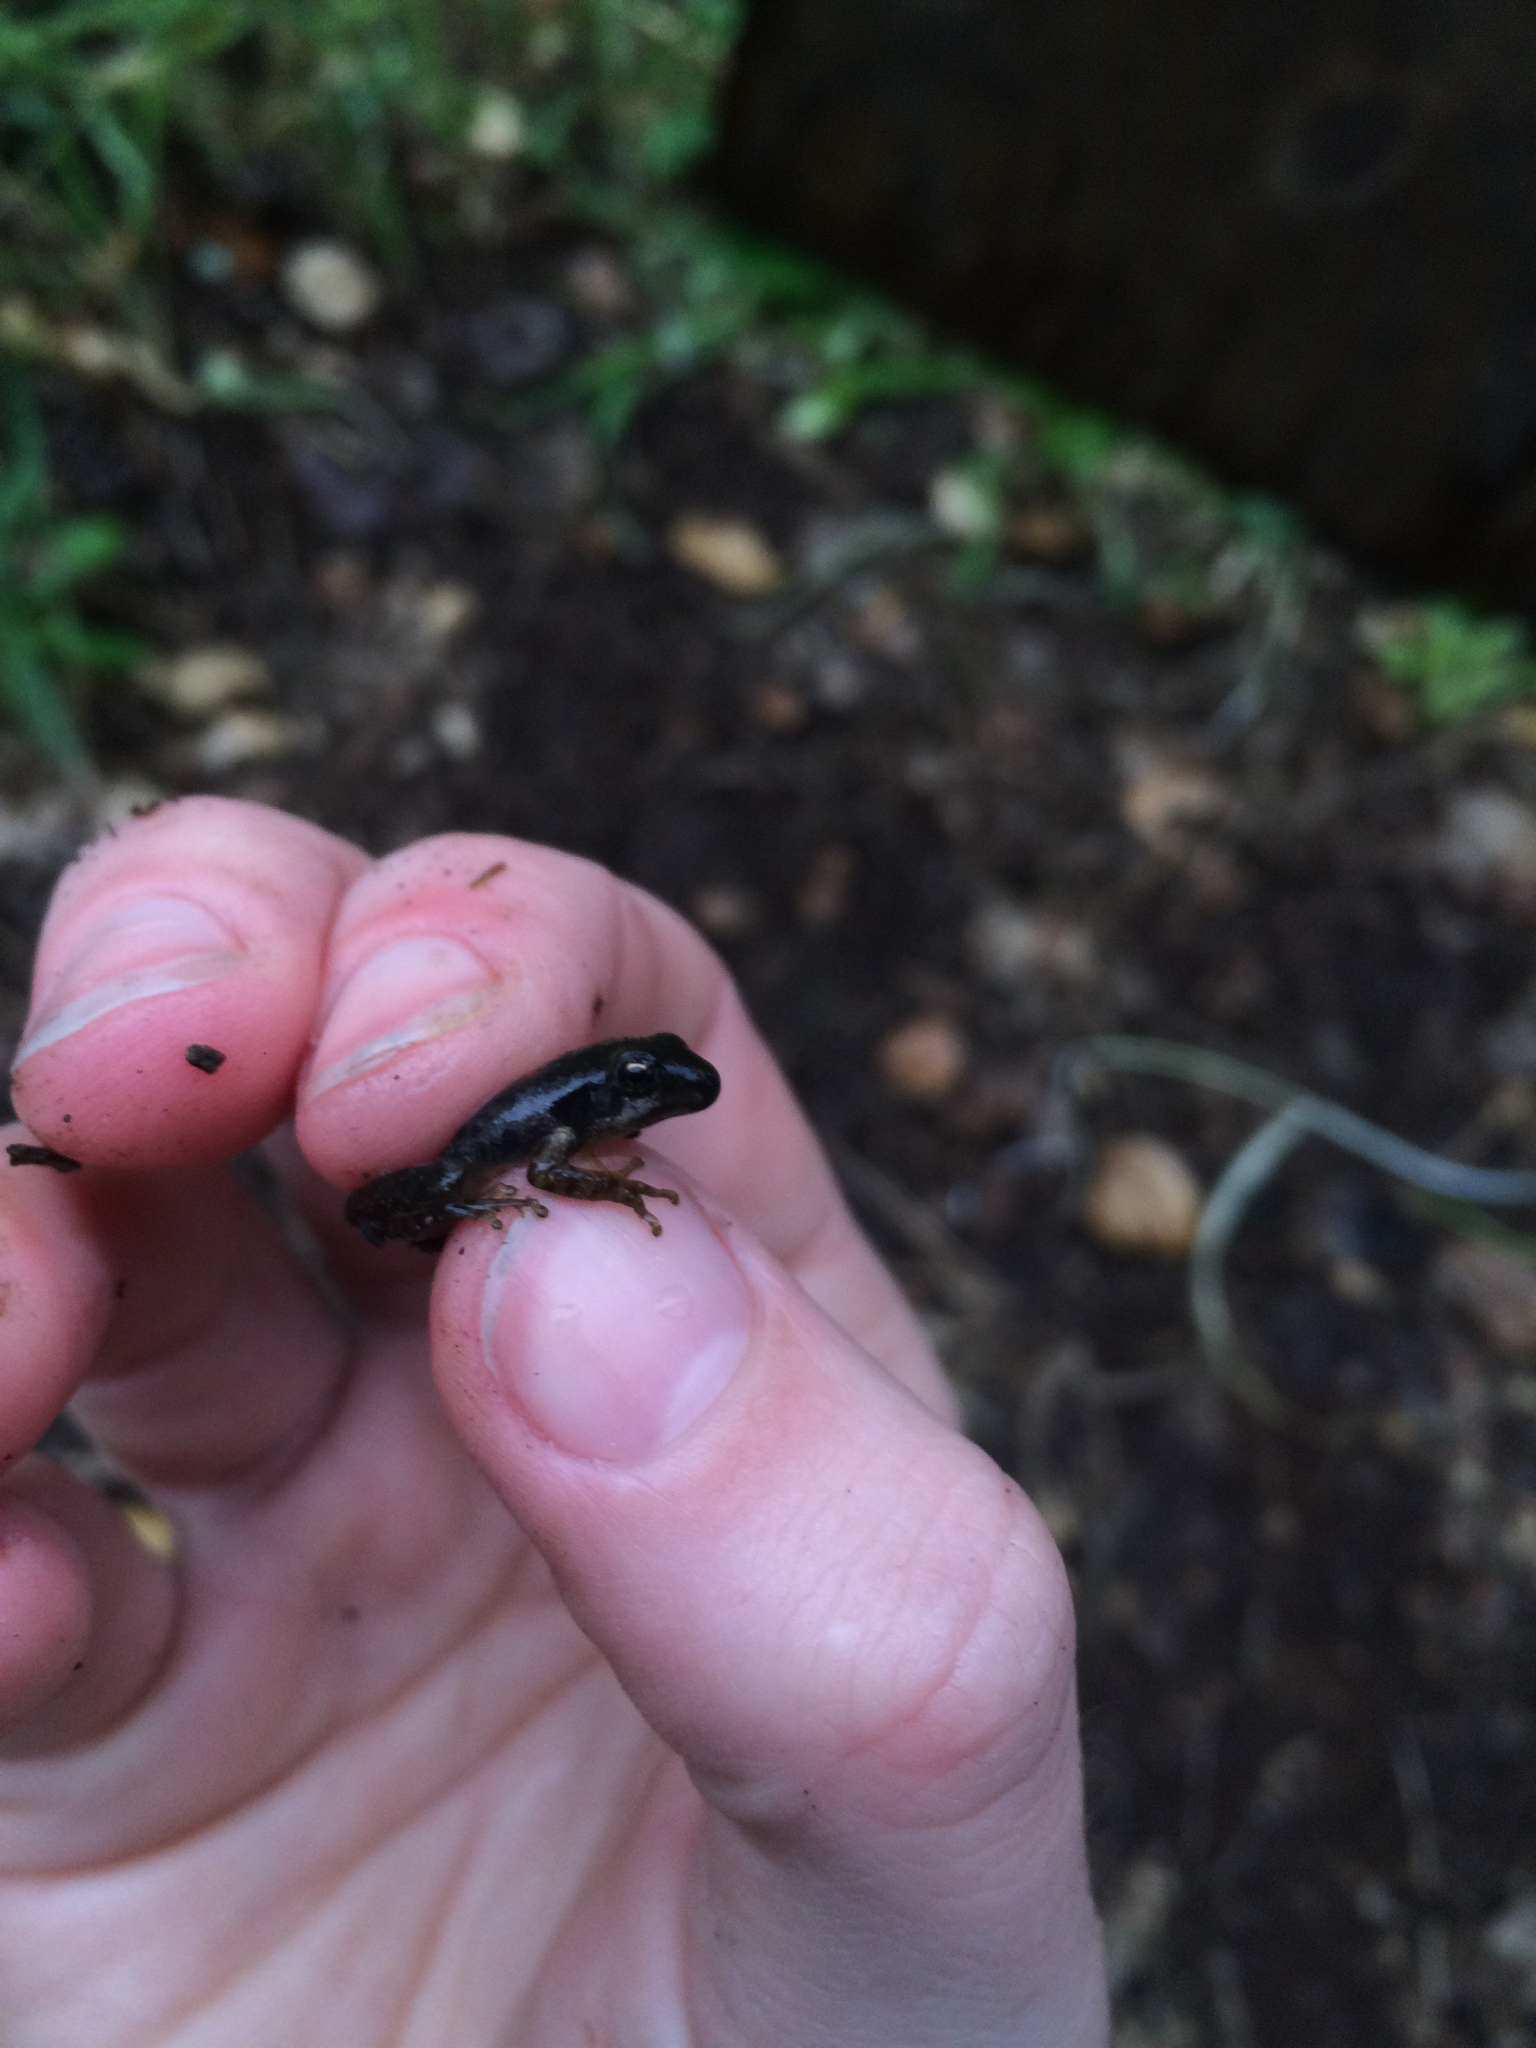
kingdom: Animalia
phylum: Chordata
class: Amphibia
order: Anura
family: Hylidae
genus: Pseudacris
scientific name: Pseudacris regilla
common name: Pacific chorus frog
